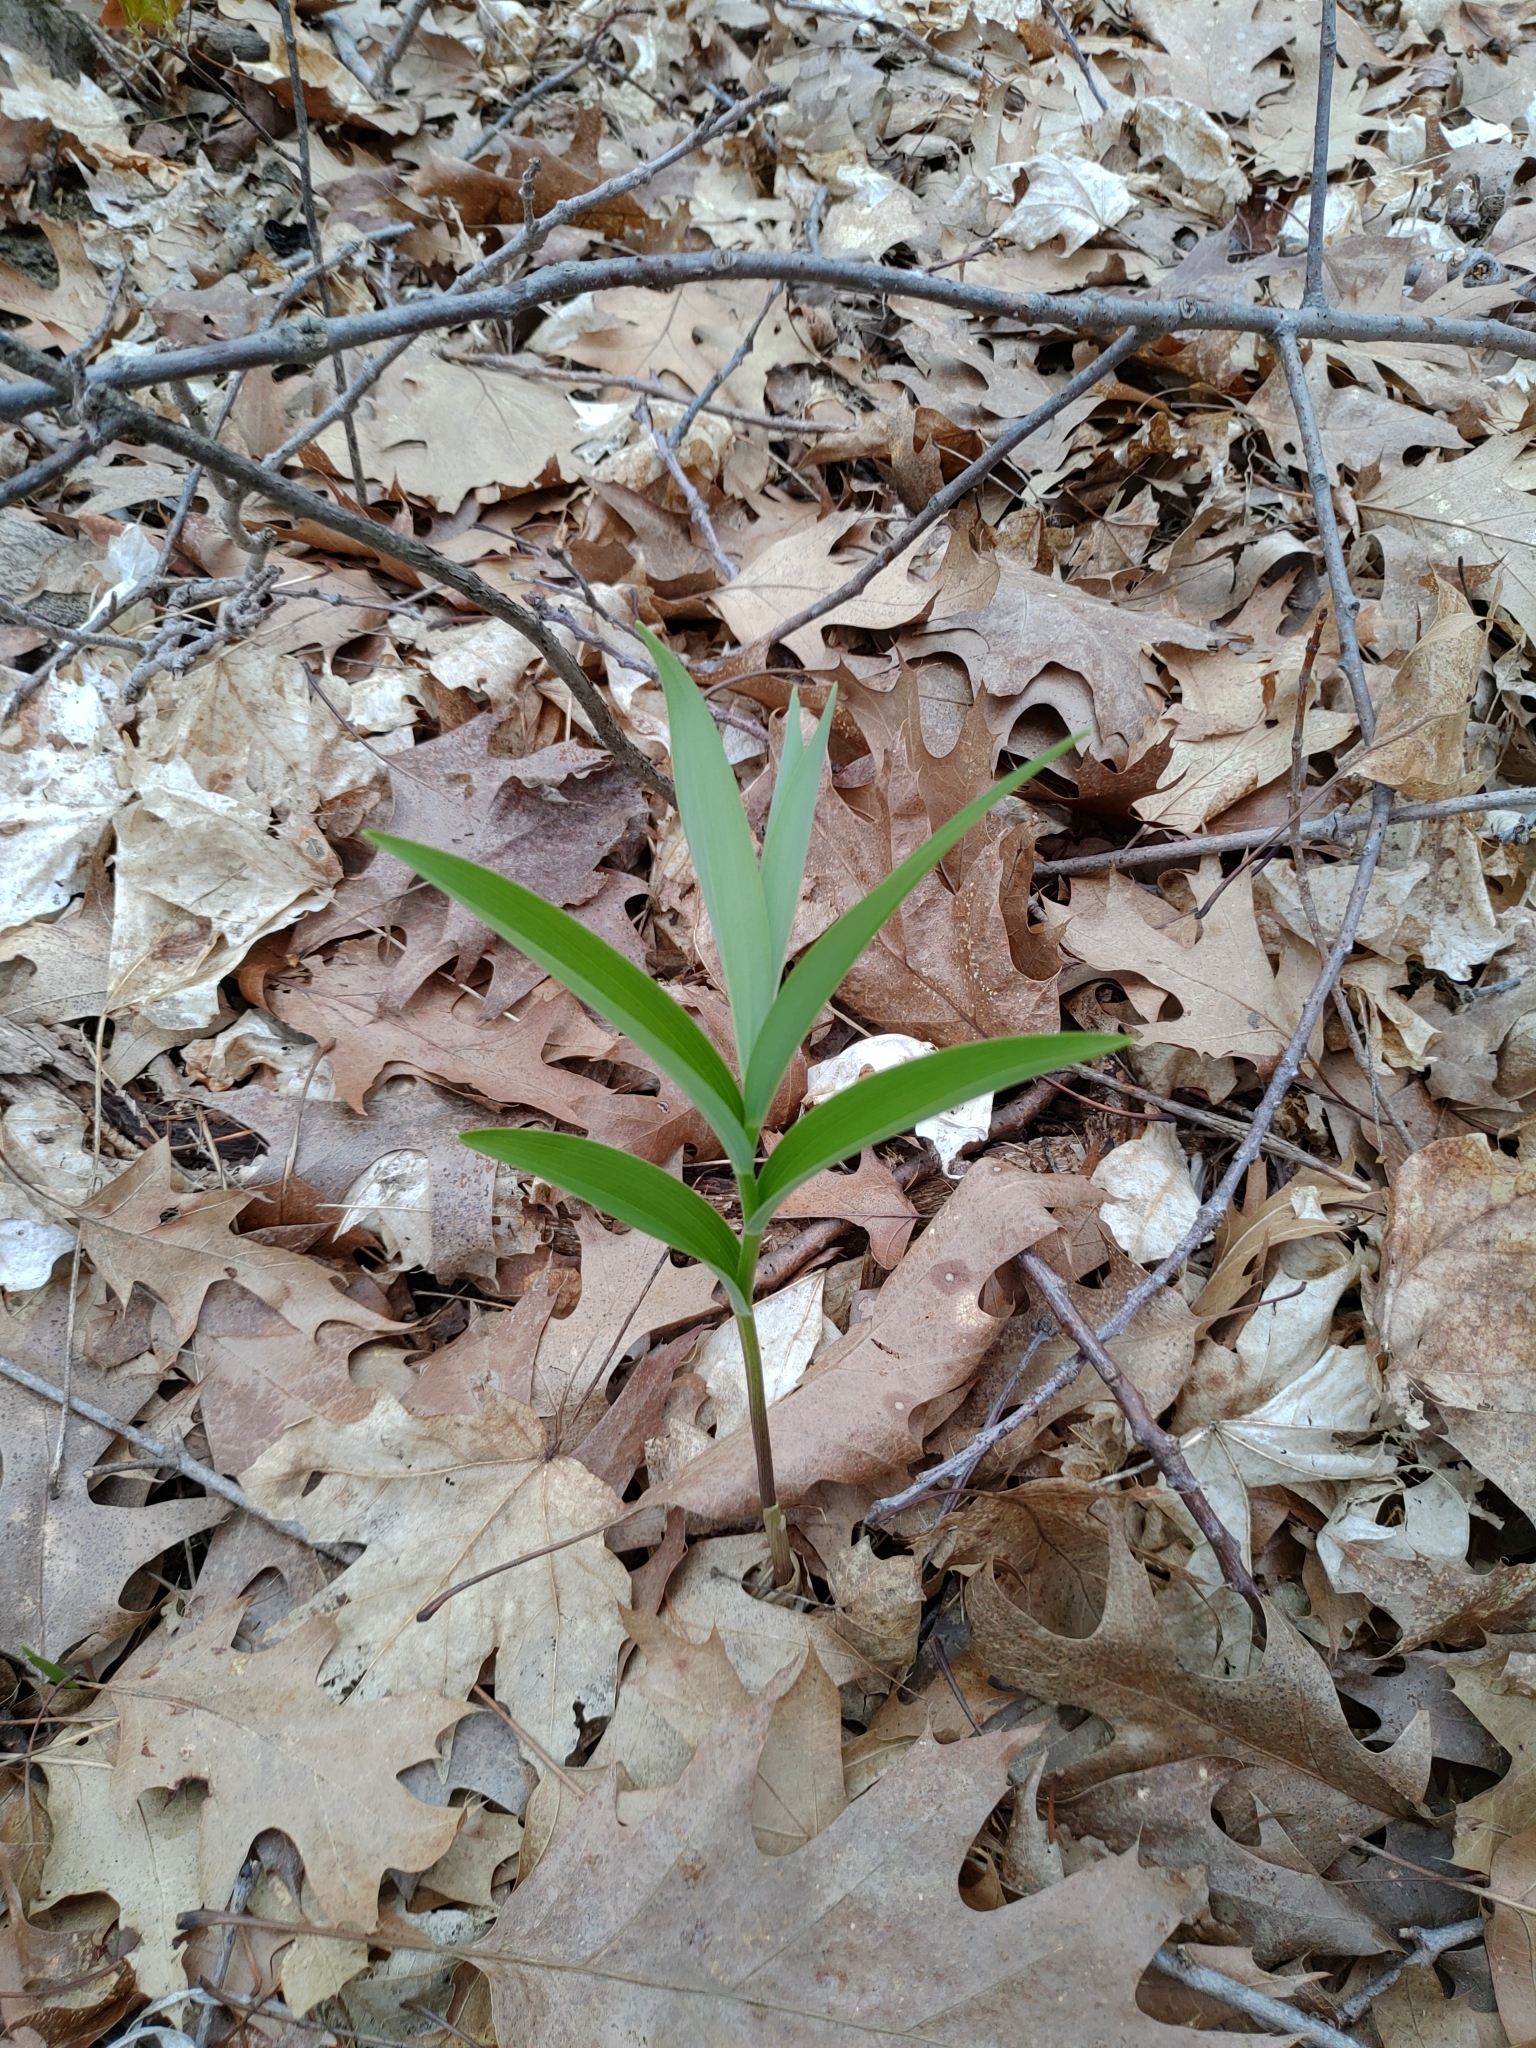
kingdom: Plantae
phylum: Tracheophyta
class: Liliopsida
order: Asparagales
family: Asparagaceae
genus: Maianthemum
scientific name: Maianthemum stellatum
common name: Little false solomon's seal
